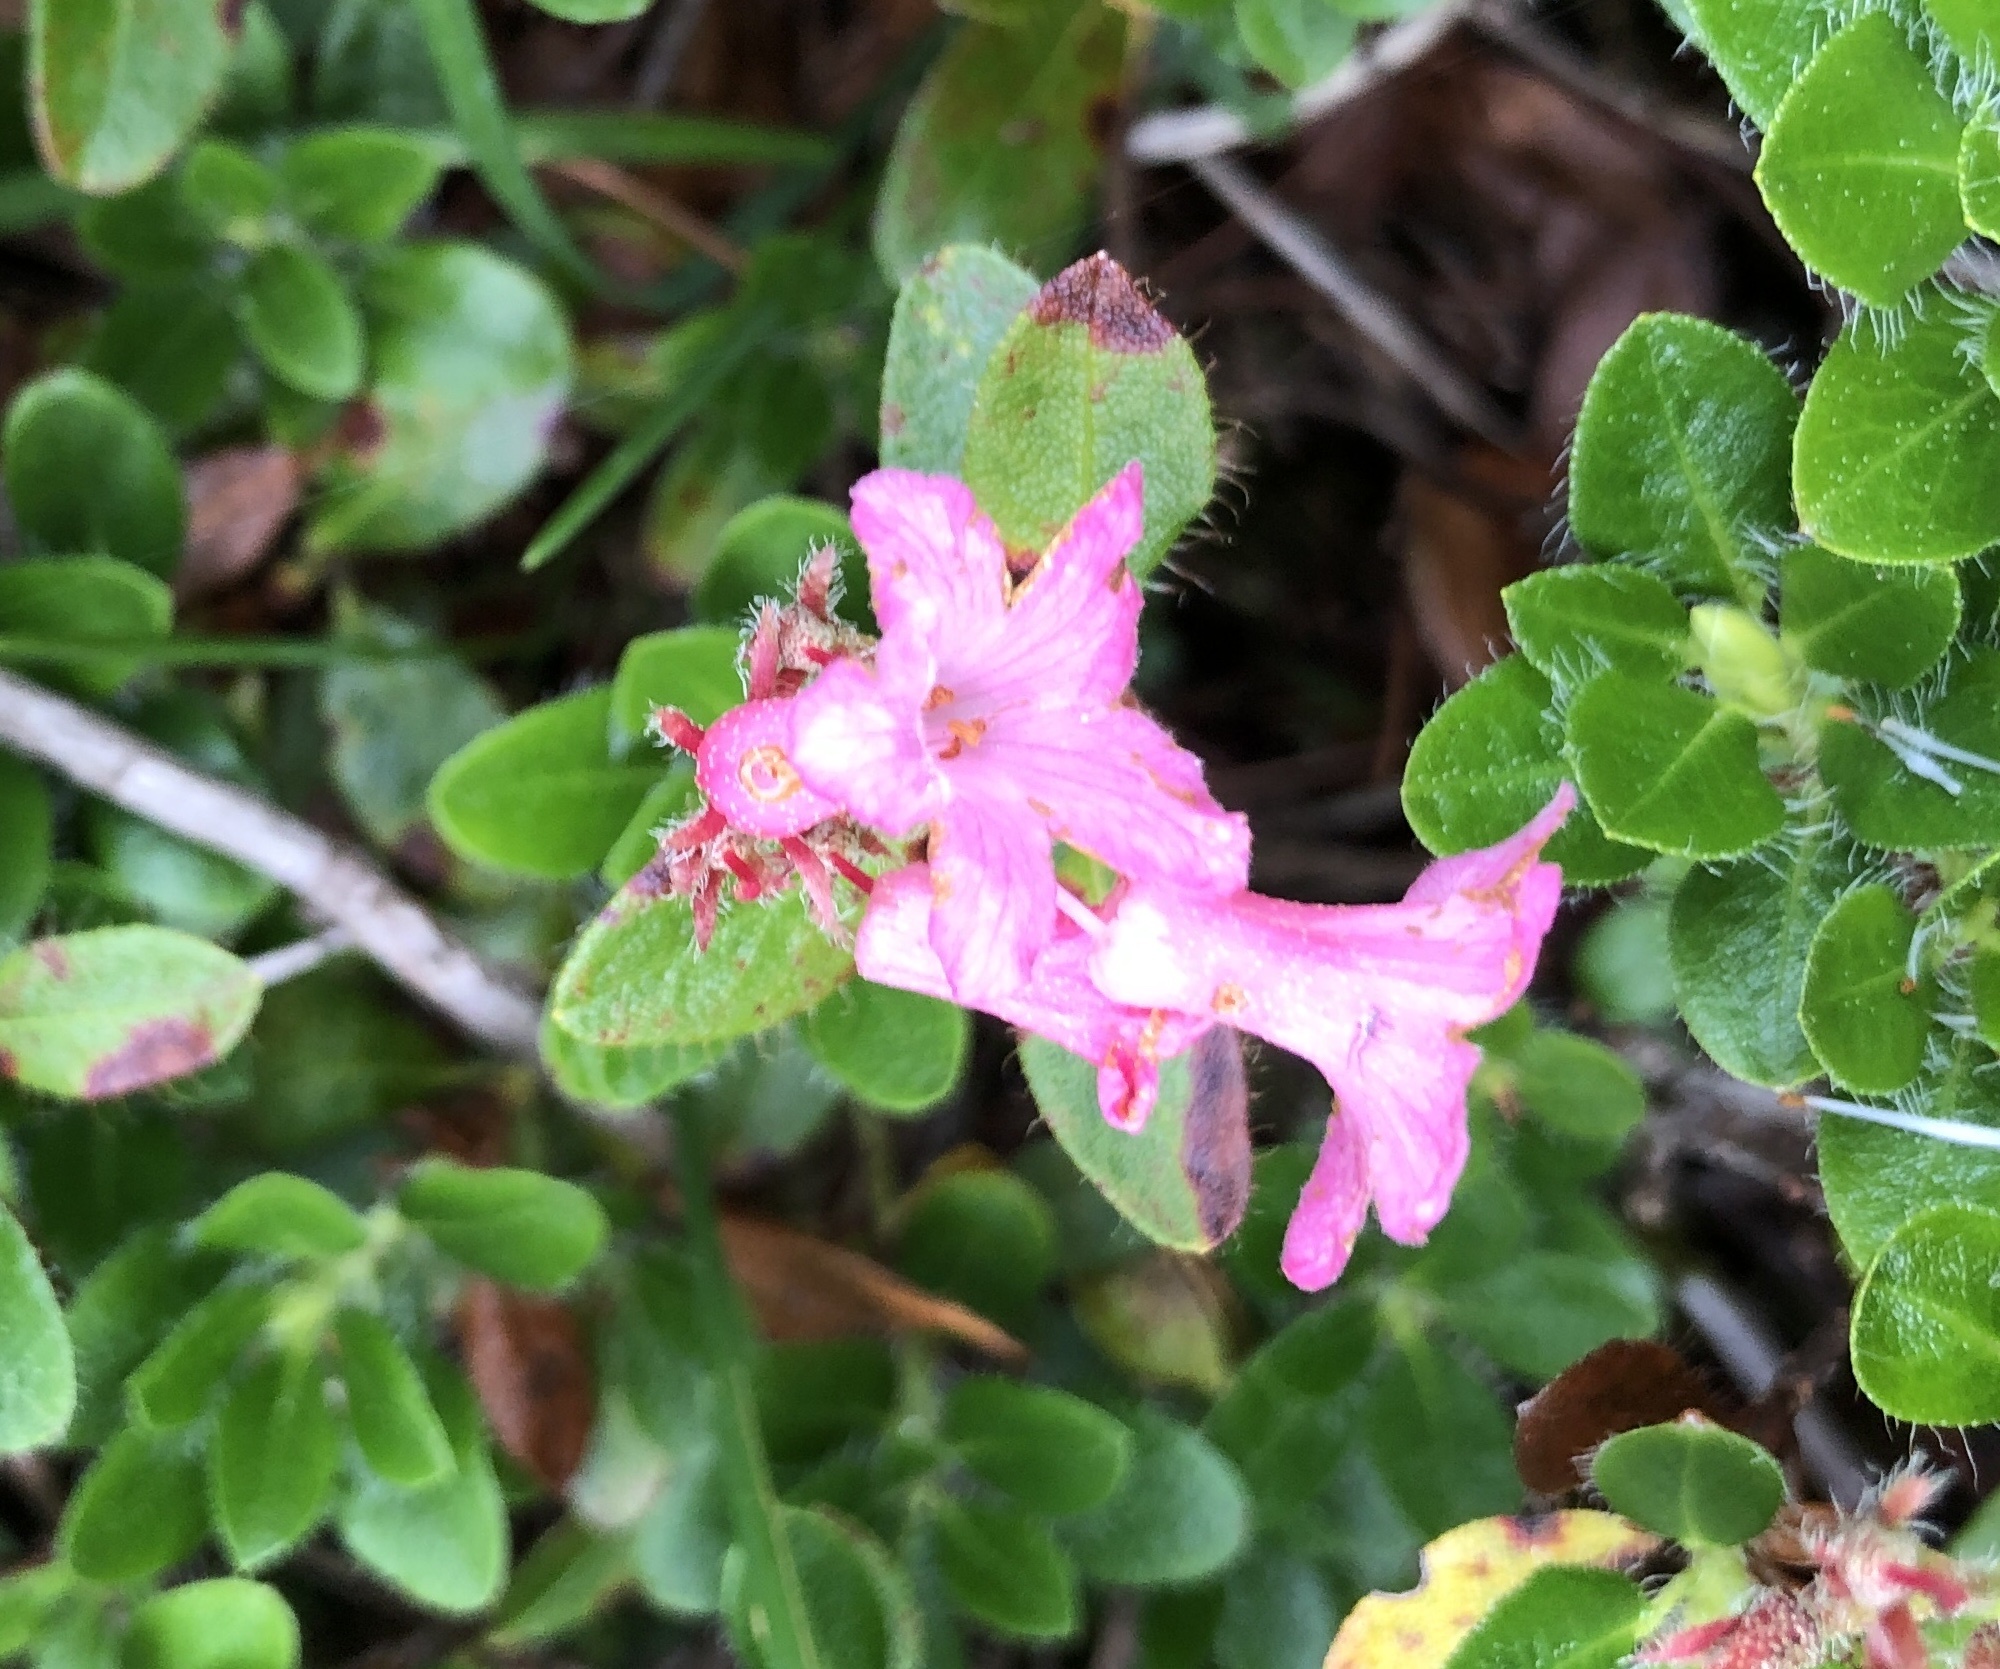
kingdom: Plantae
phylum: Tracheophyta
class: Magnoliopsida
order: Ericales
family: Ericaceae
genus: Rhododendron
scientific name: Rhododendron hirsutum
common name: Hairy alpenrose
